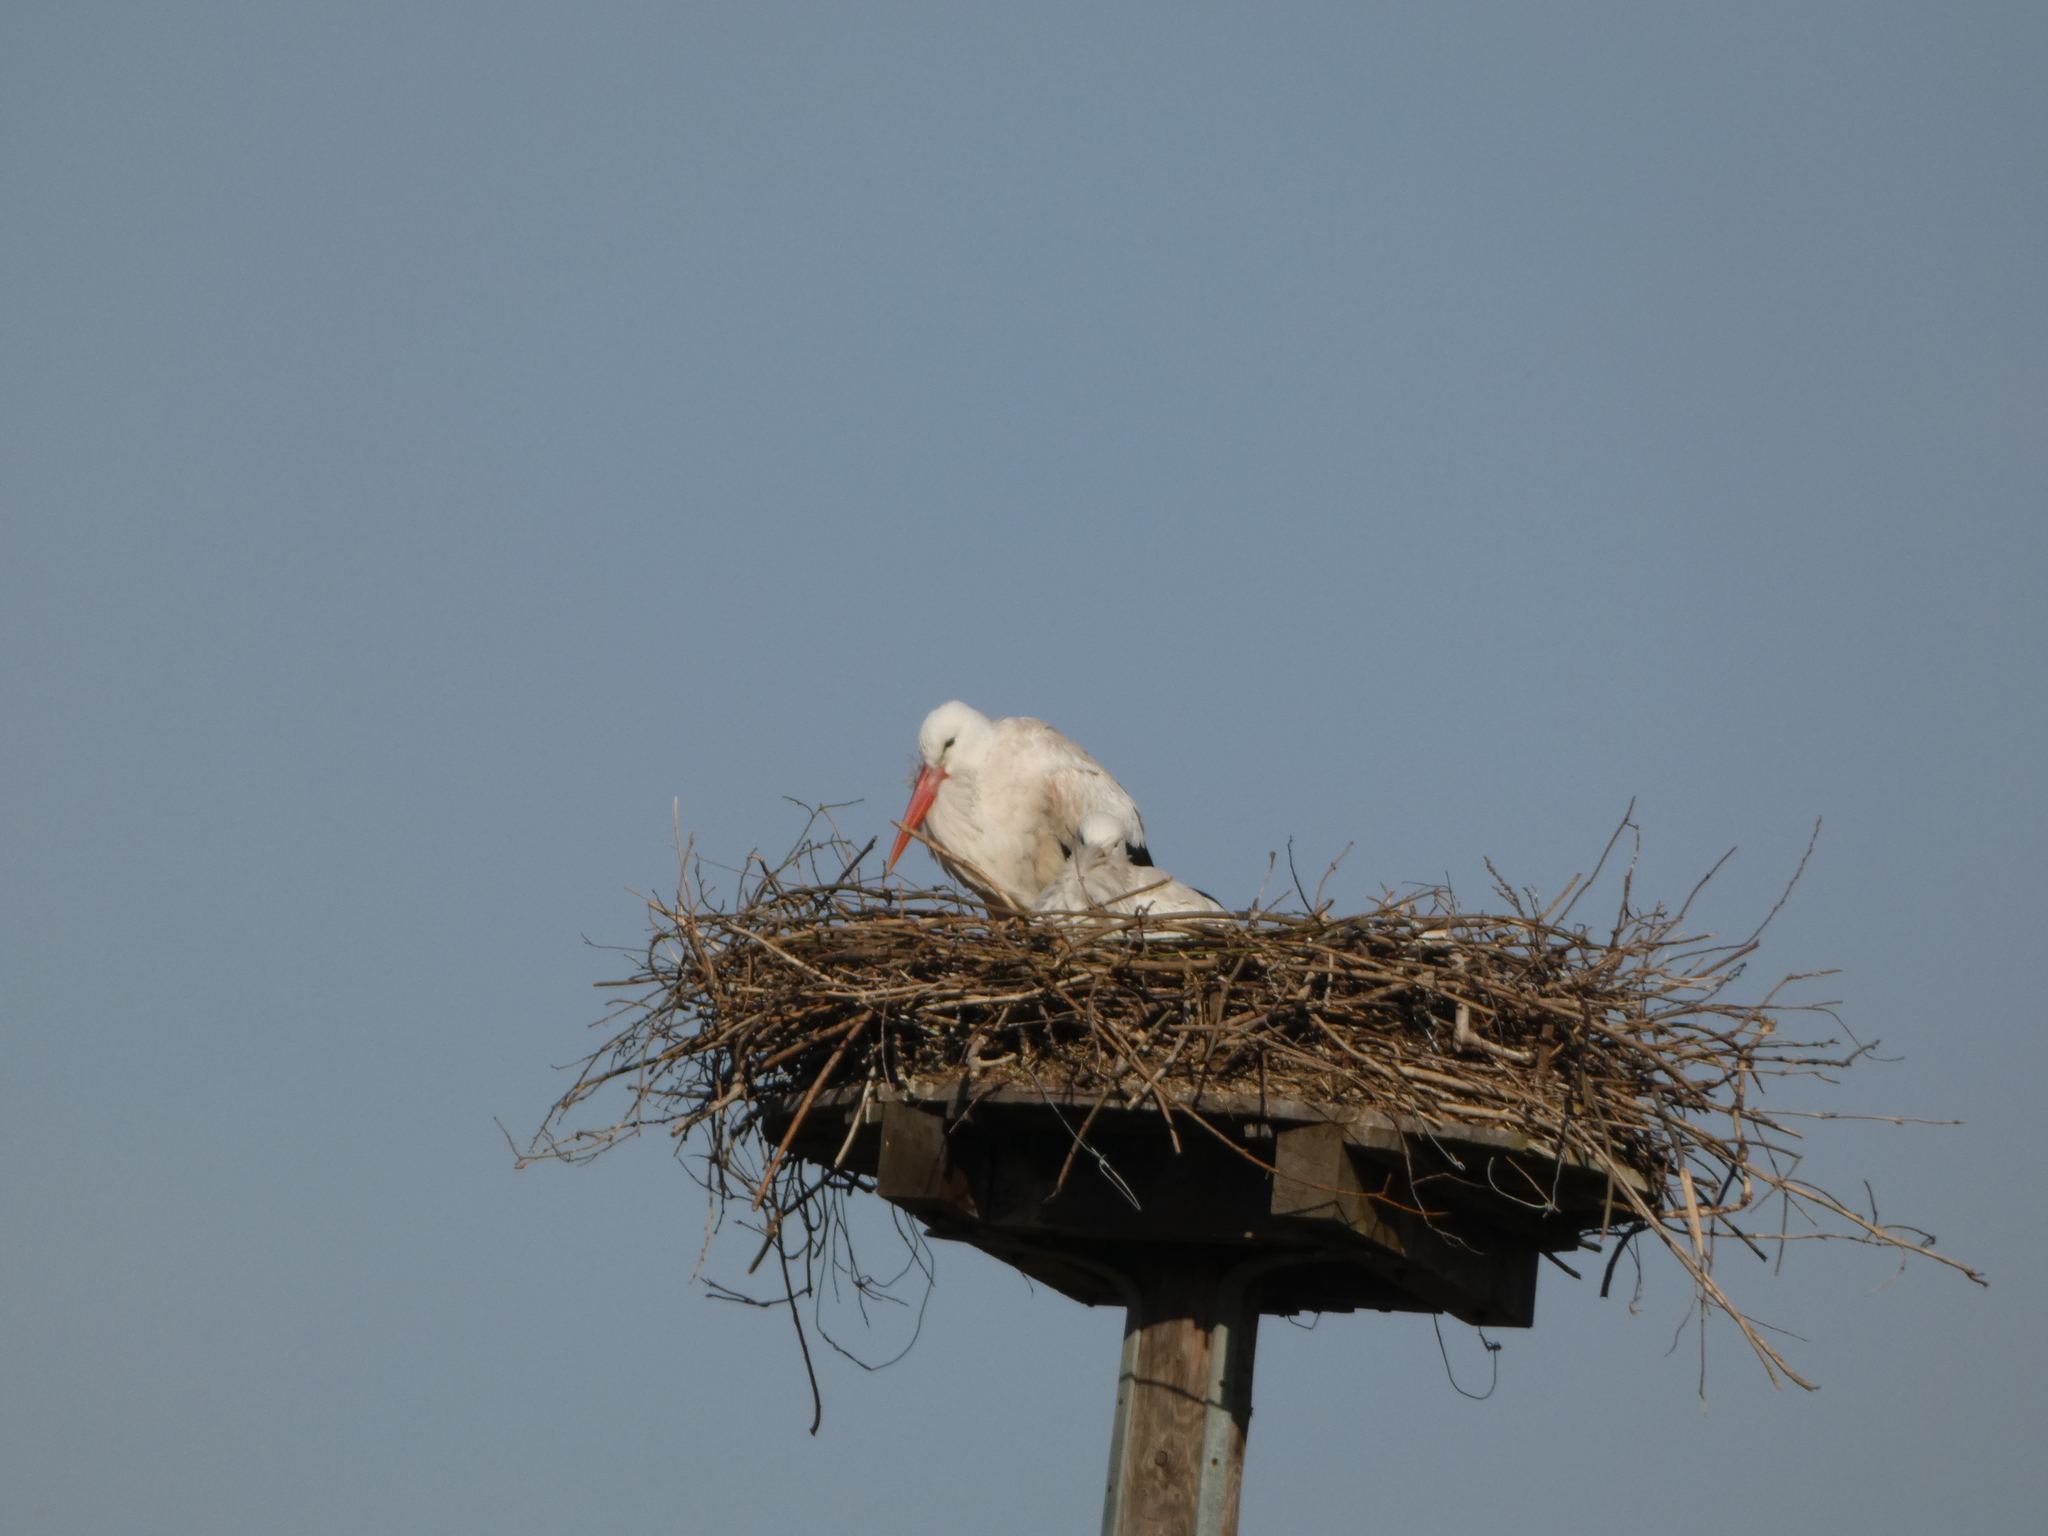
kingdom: Animalia
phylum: Chordata
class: Aves
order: Ciconiiformes
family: Ciconiidae
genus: Ciconia
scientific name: Ciconia ciconia
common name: White stork
